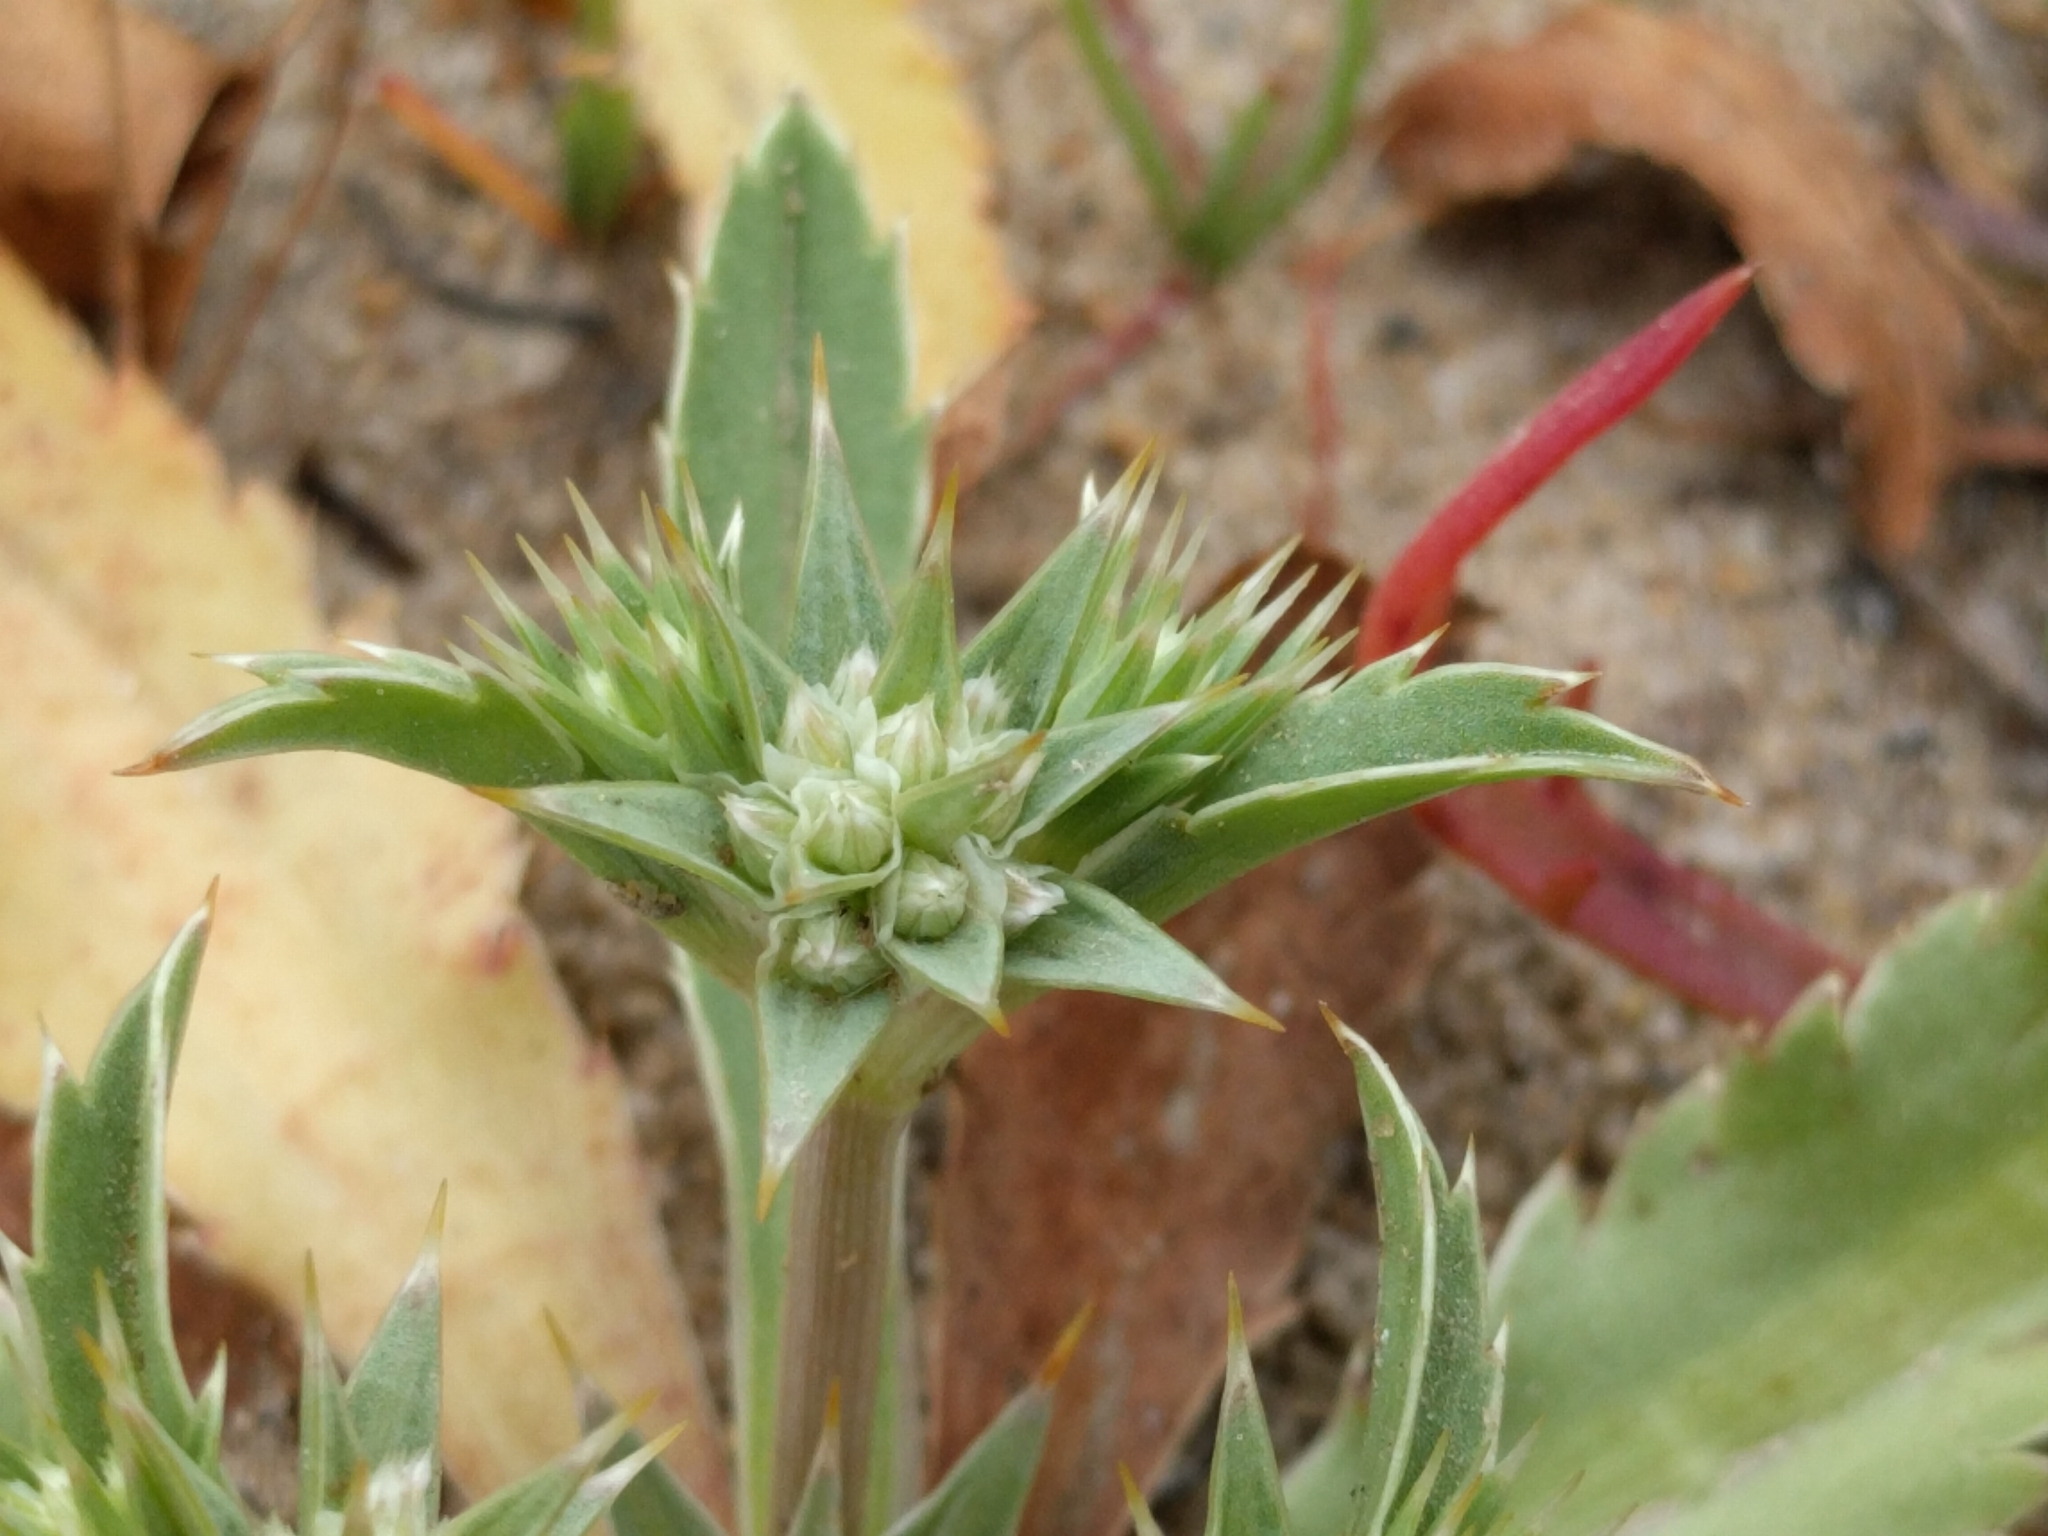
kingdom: Plantae
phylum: Tracheophyta
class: Magnoliopsida
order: Apiales
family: Apiaceae
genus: Eryngium
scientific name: Eryngium armatum
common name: Coyote thistle
